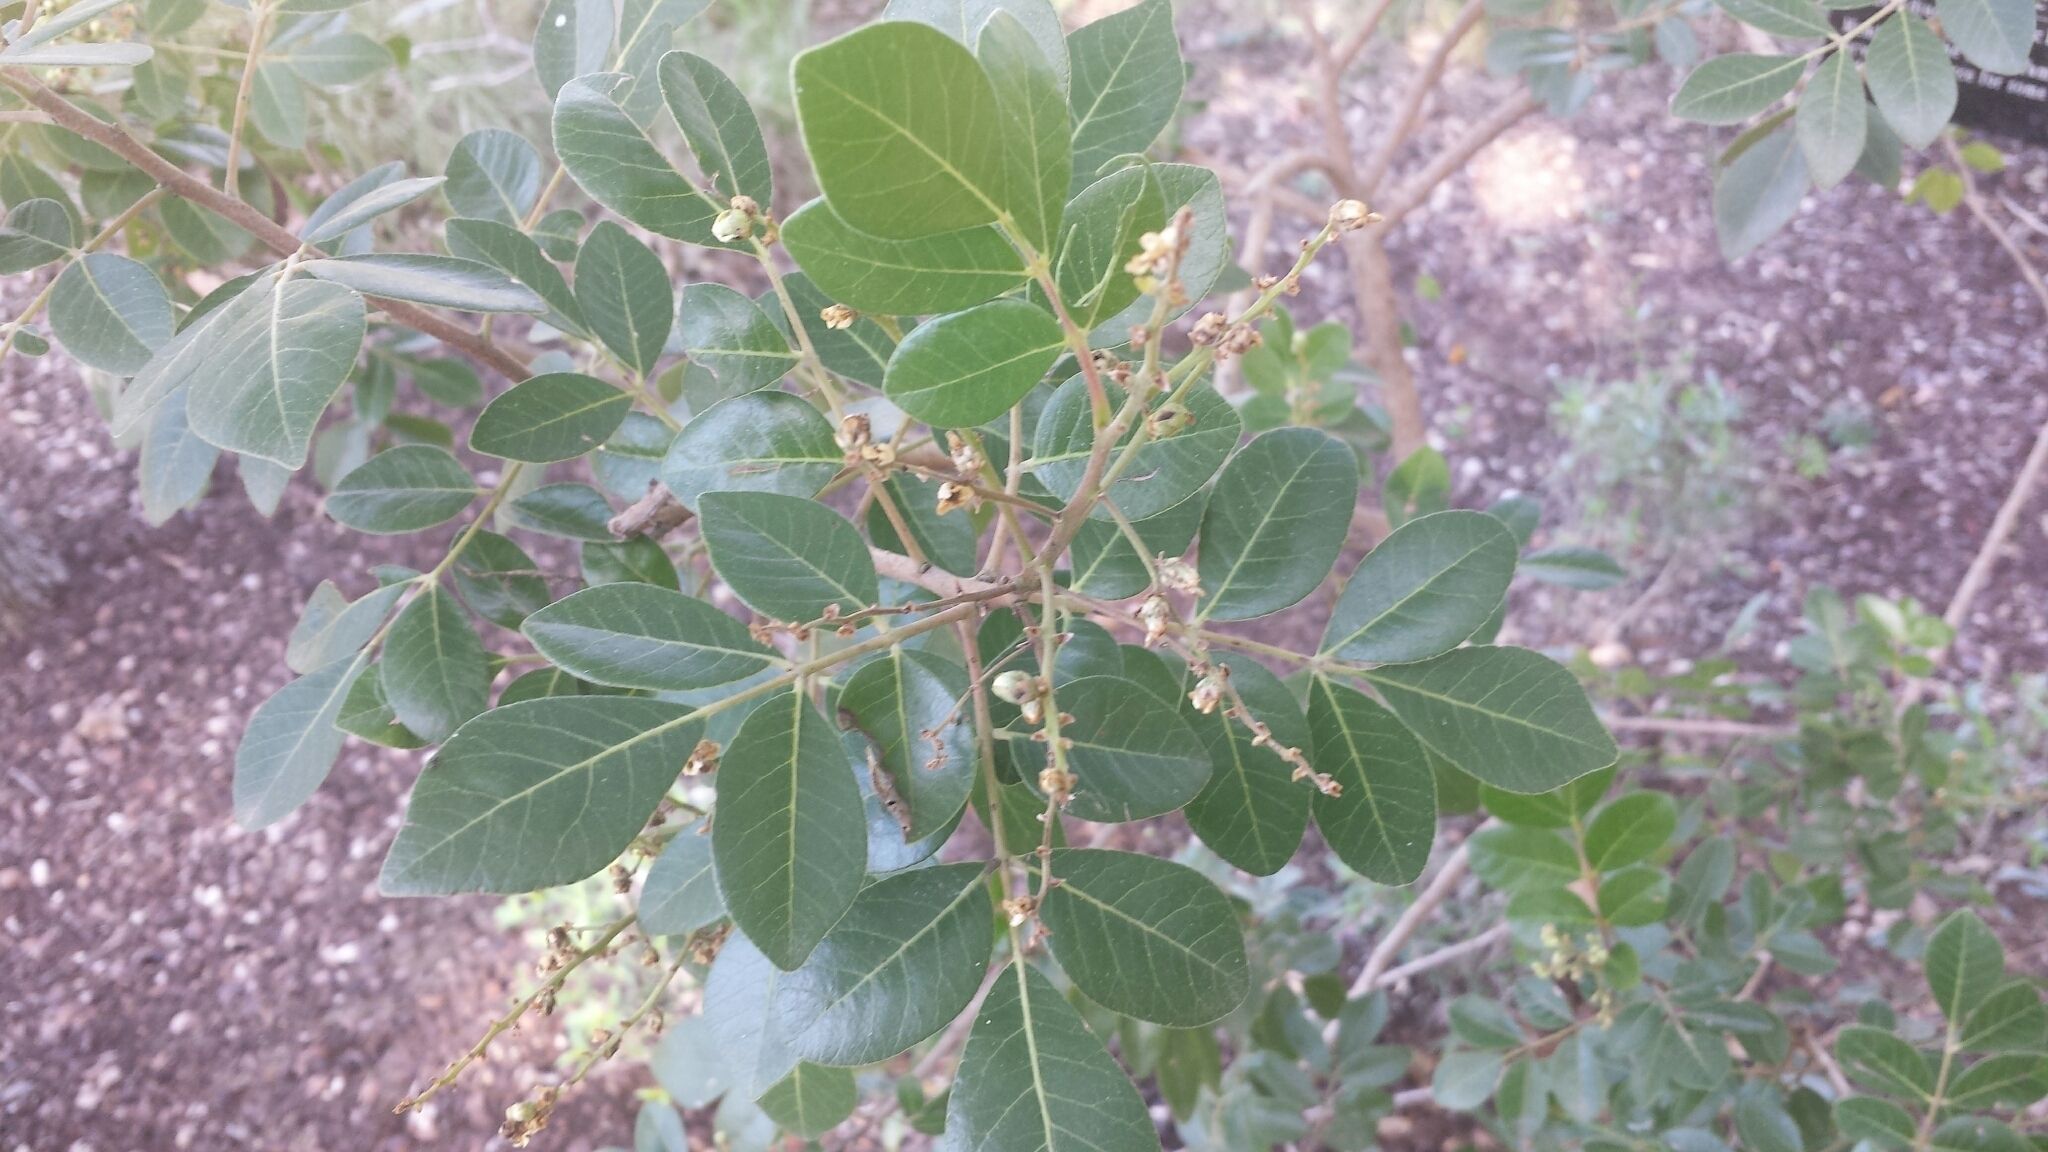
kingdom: Plantae
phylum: Tracheophyta
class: Magnoliopsida
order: Sapindales
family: Anacardiaceae
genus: Rhus
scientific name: Rhus virens
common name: Evergreen sumac
